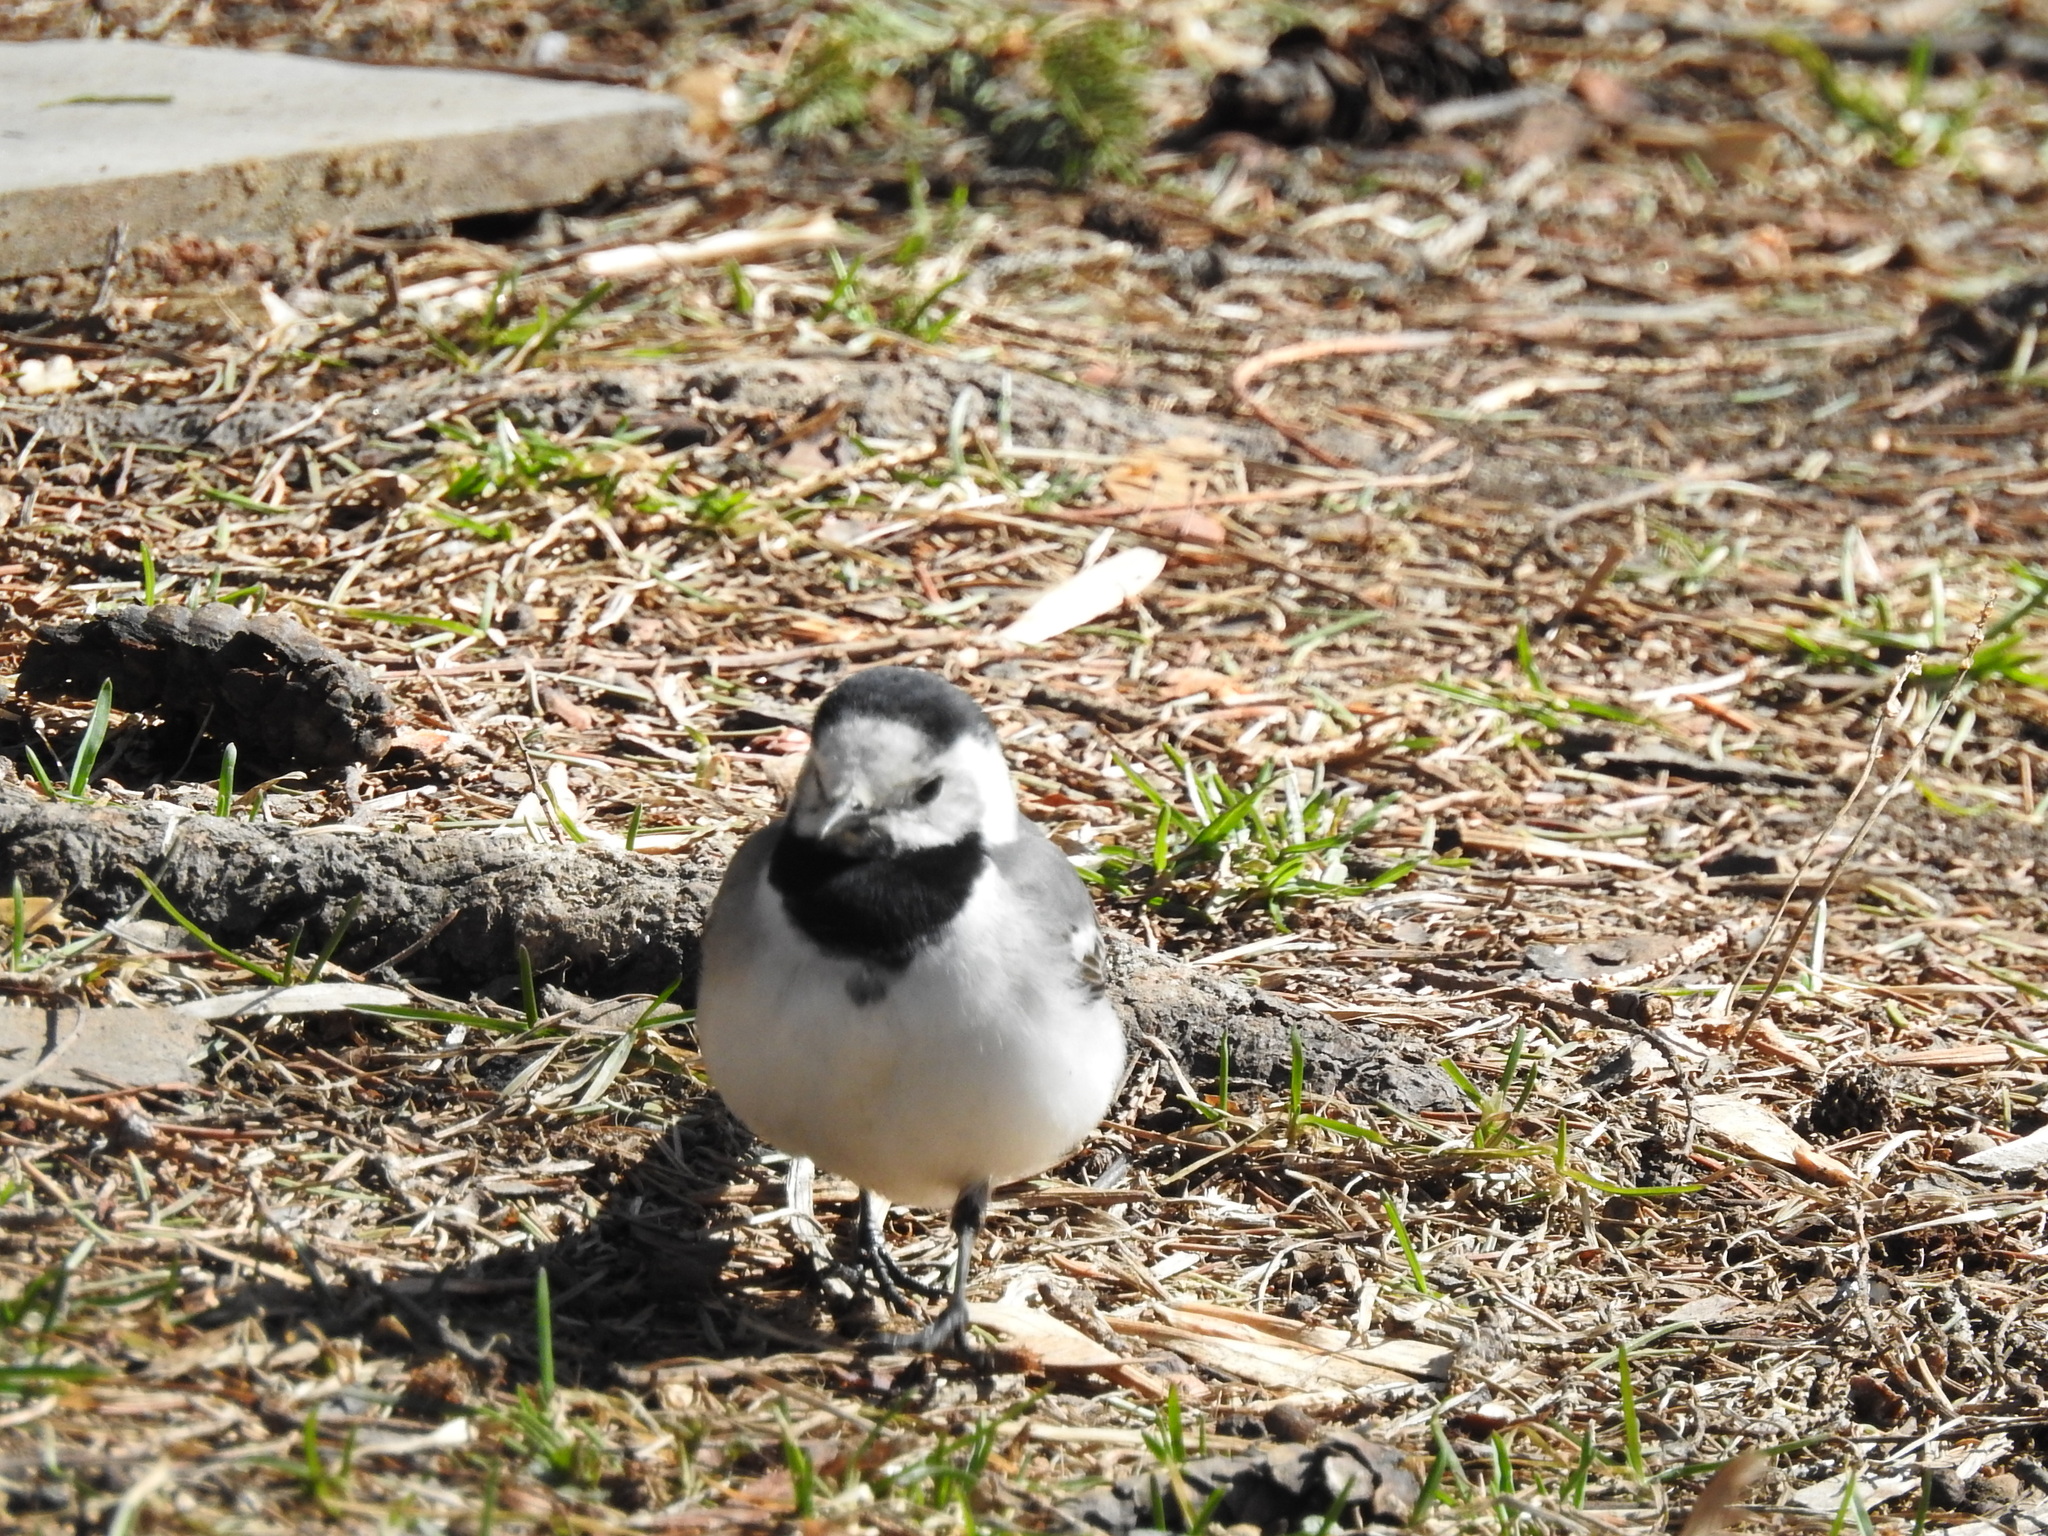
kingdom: Animalia
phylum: Chordata
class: Aves
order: Passeriformes
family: Motacillidae
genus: Motacilla
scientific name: Motacilla alba
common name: White wagtail
